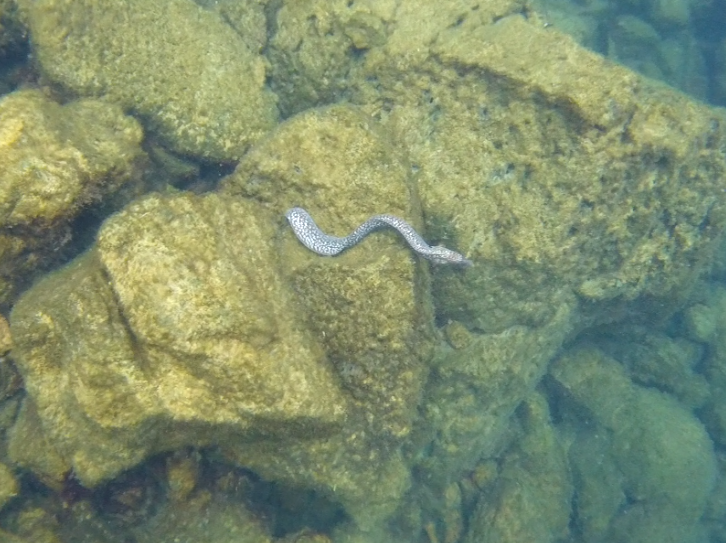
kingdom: Animalia
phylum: Chordata
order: Anguilliformes
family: Muraenidae
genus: Gymnothorax
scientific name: Gymnothorax pictus
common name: Peppered moray
